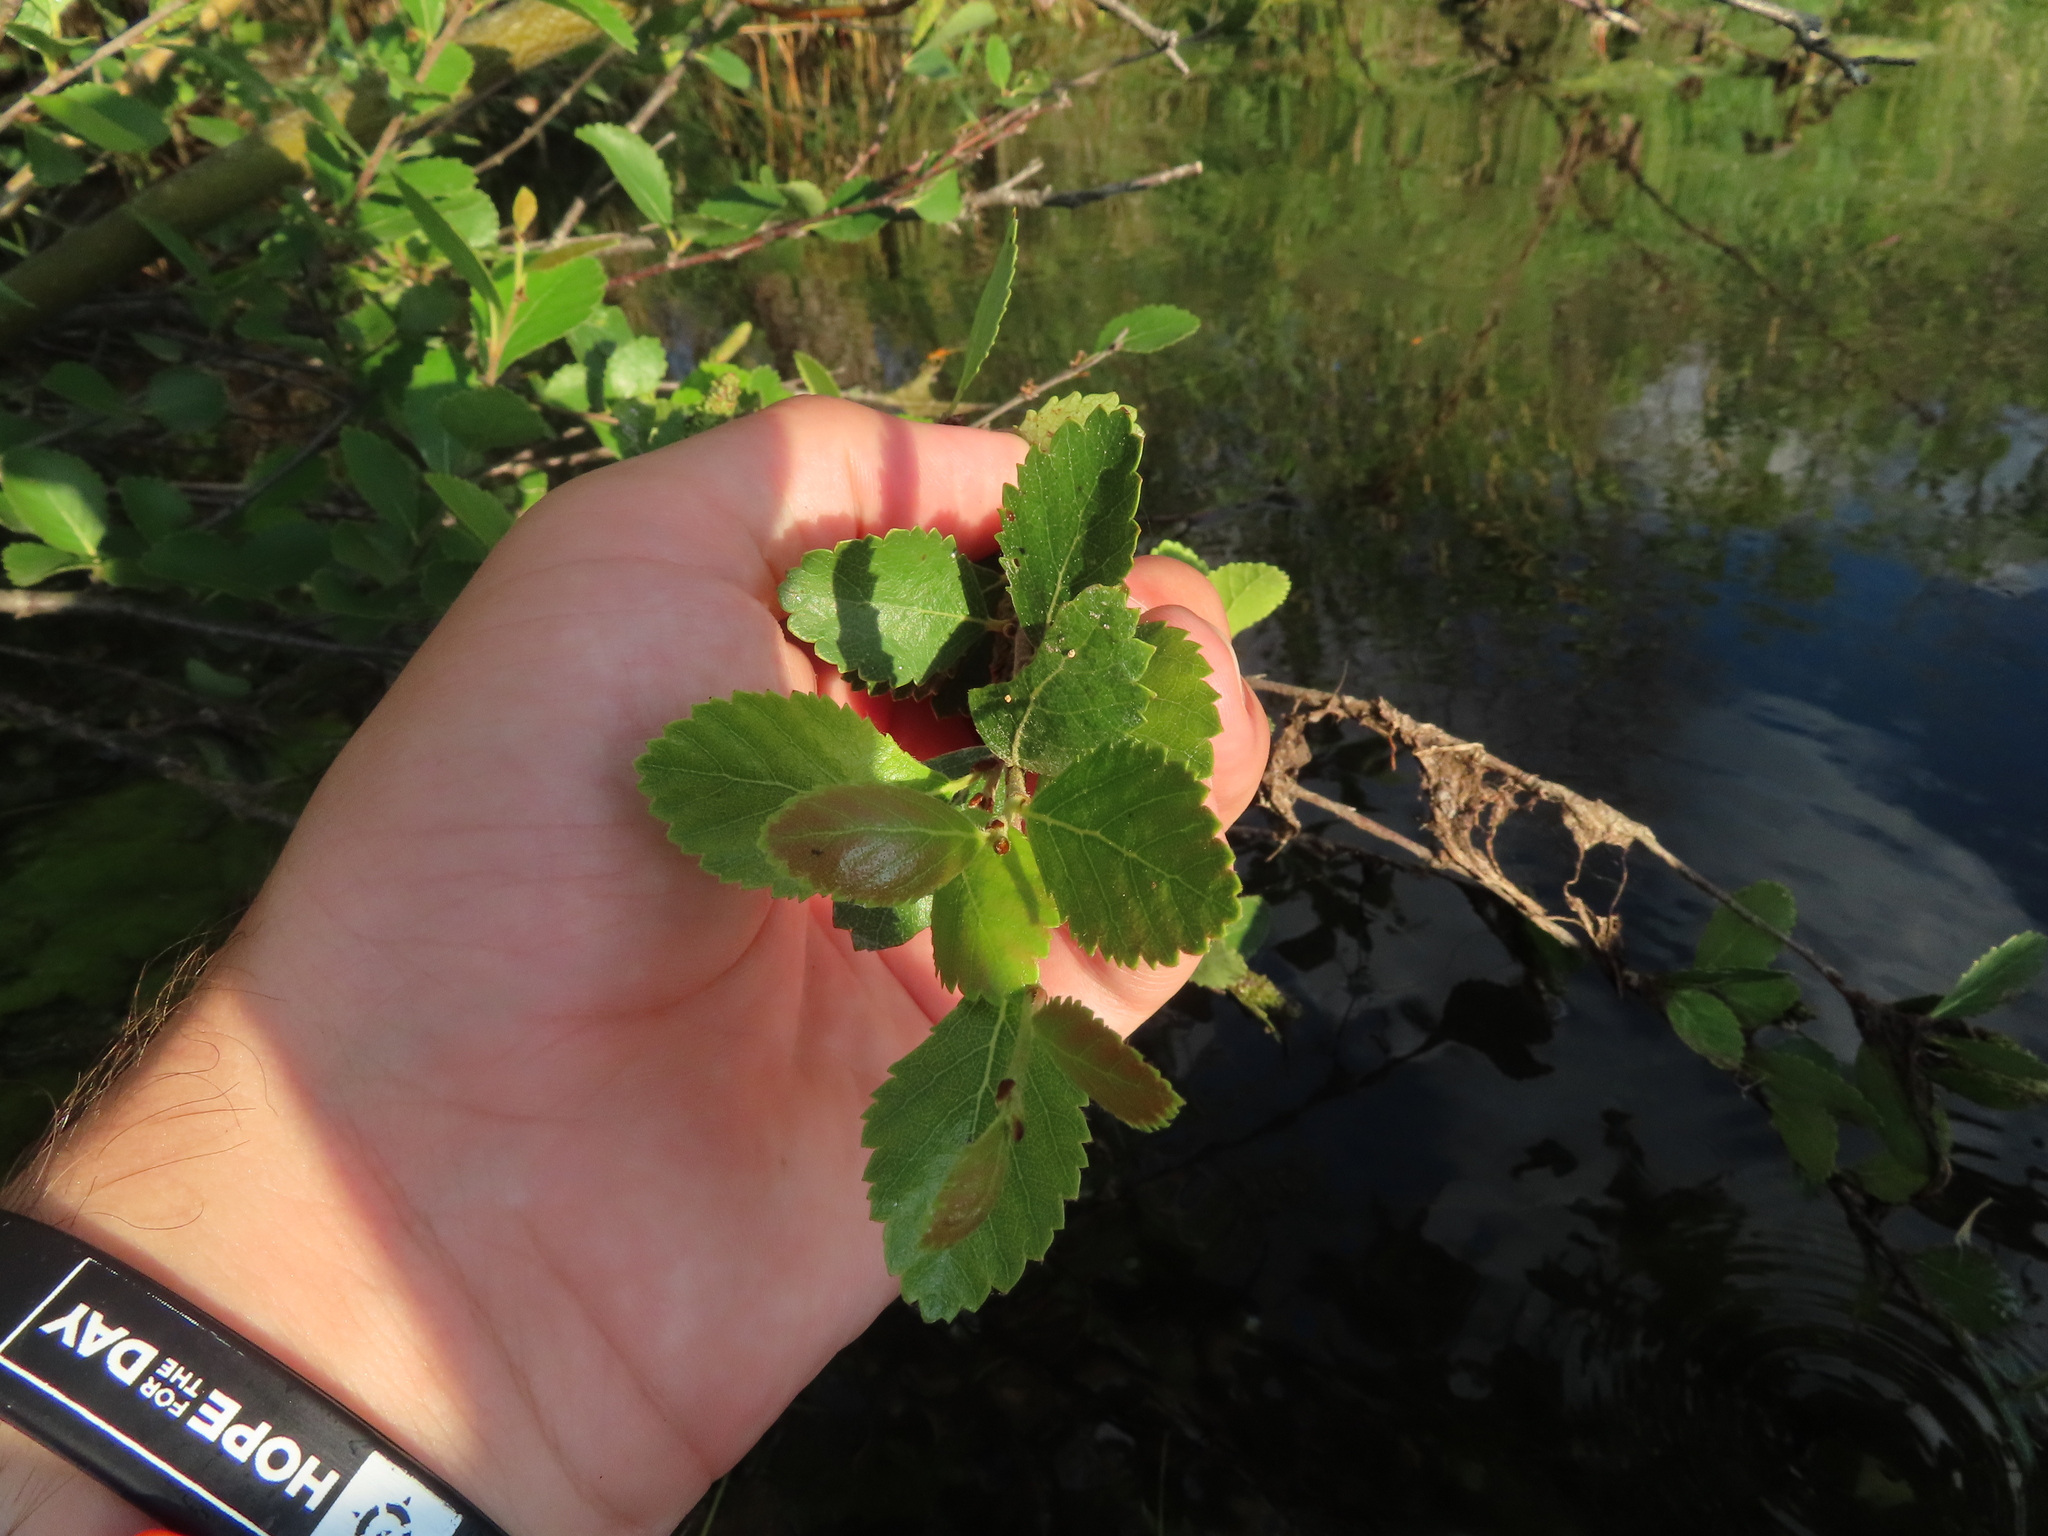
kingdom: Plantae
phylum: Tracheophyta
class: Magnoliopsida
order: Fagales
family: Betulaceae
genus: Betula
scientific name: Betula pumila
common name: Bog birch
